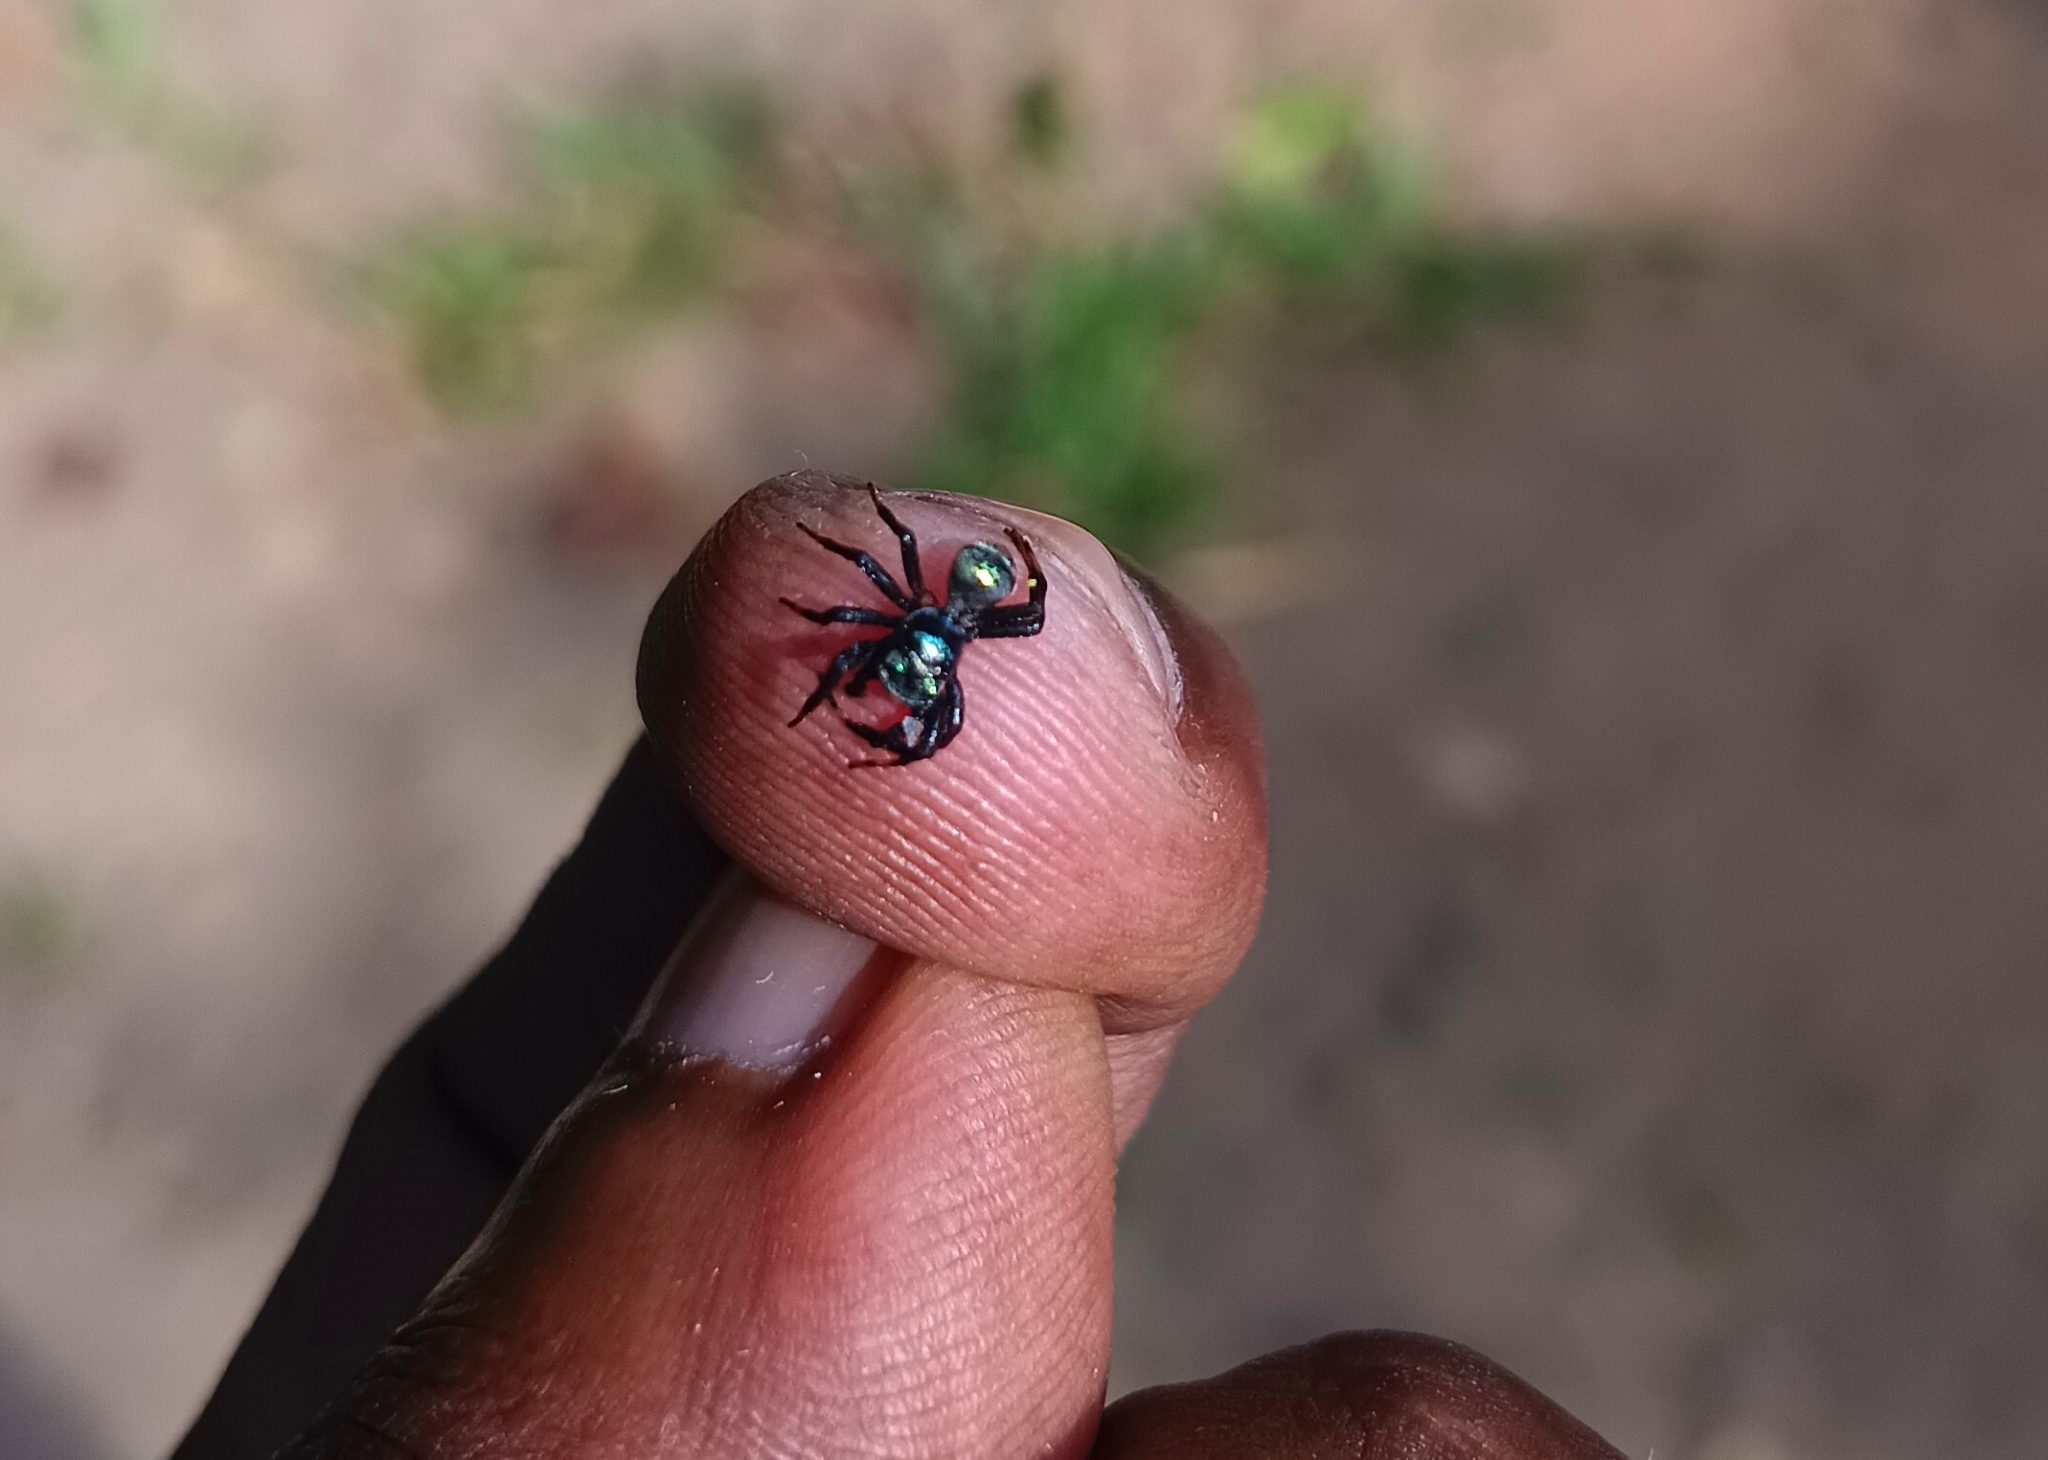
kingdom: Animalia
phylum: Arthropoda
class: Arachnida
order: Araneae
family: Salticidae
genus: Phintella
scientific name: Phintella vittata
